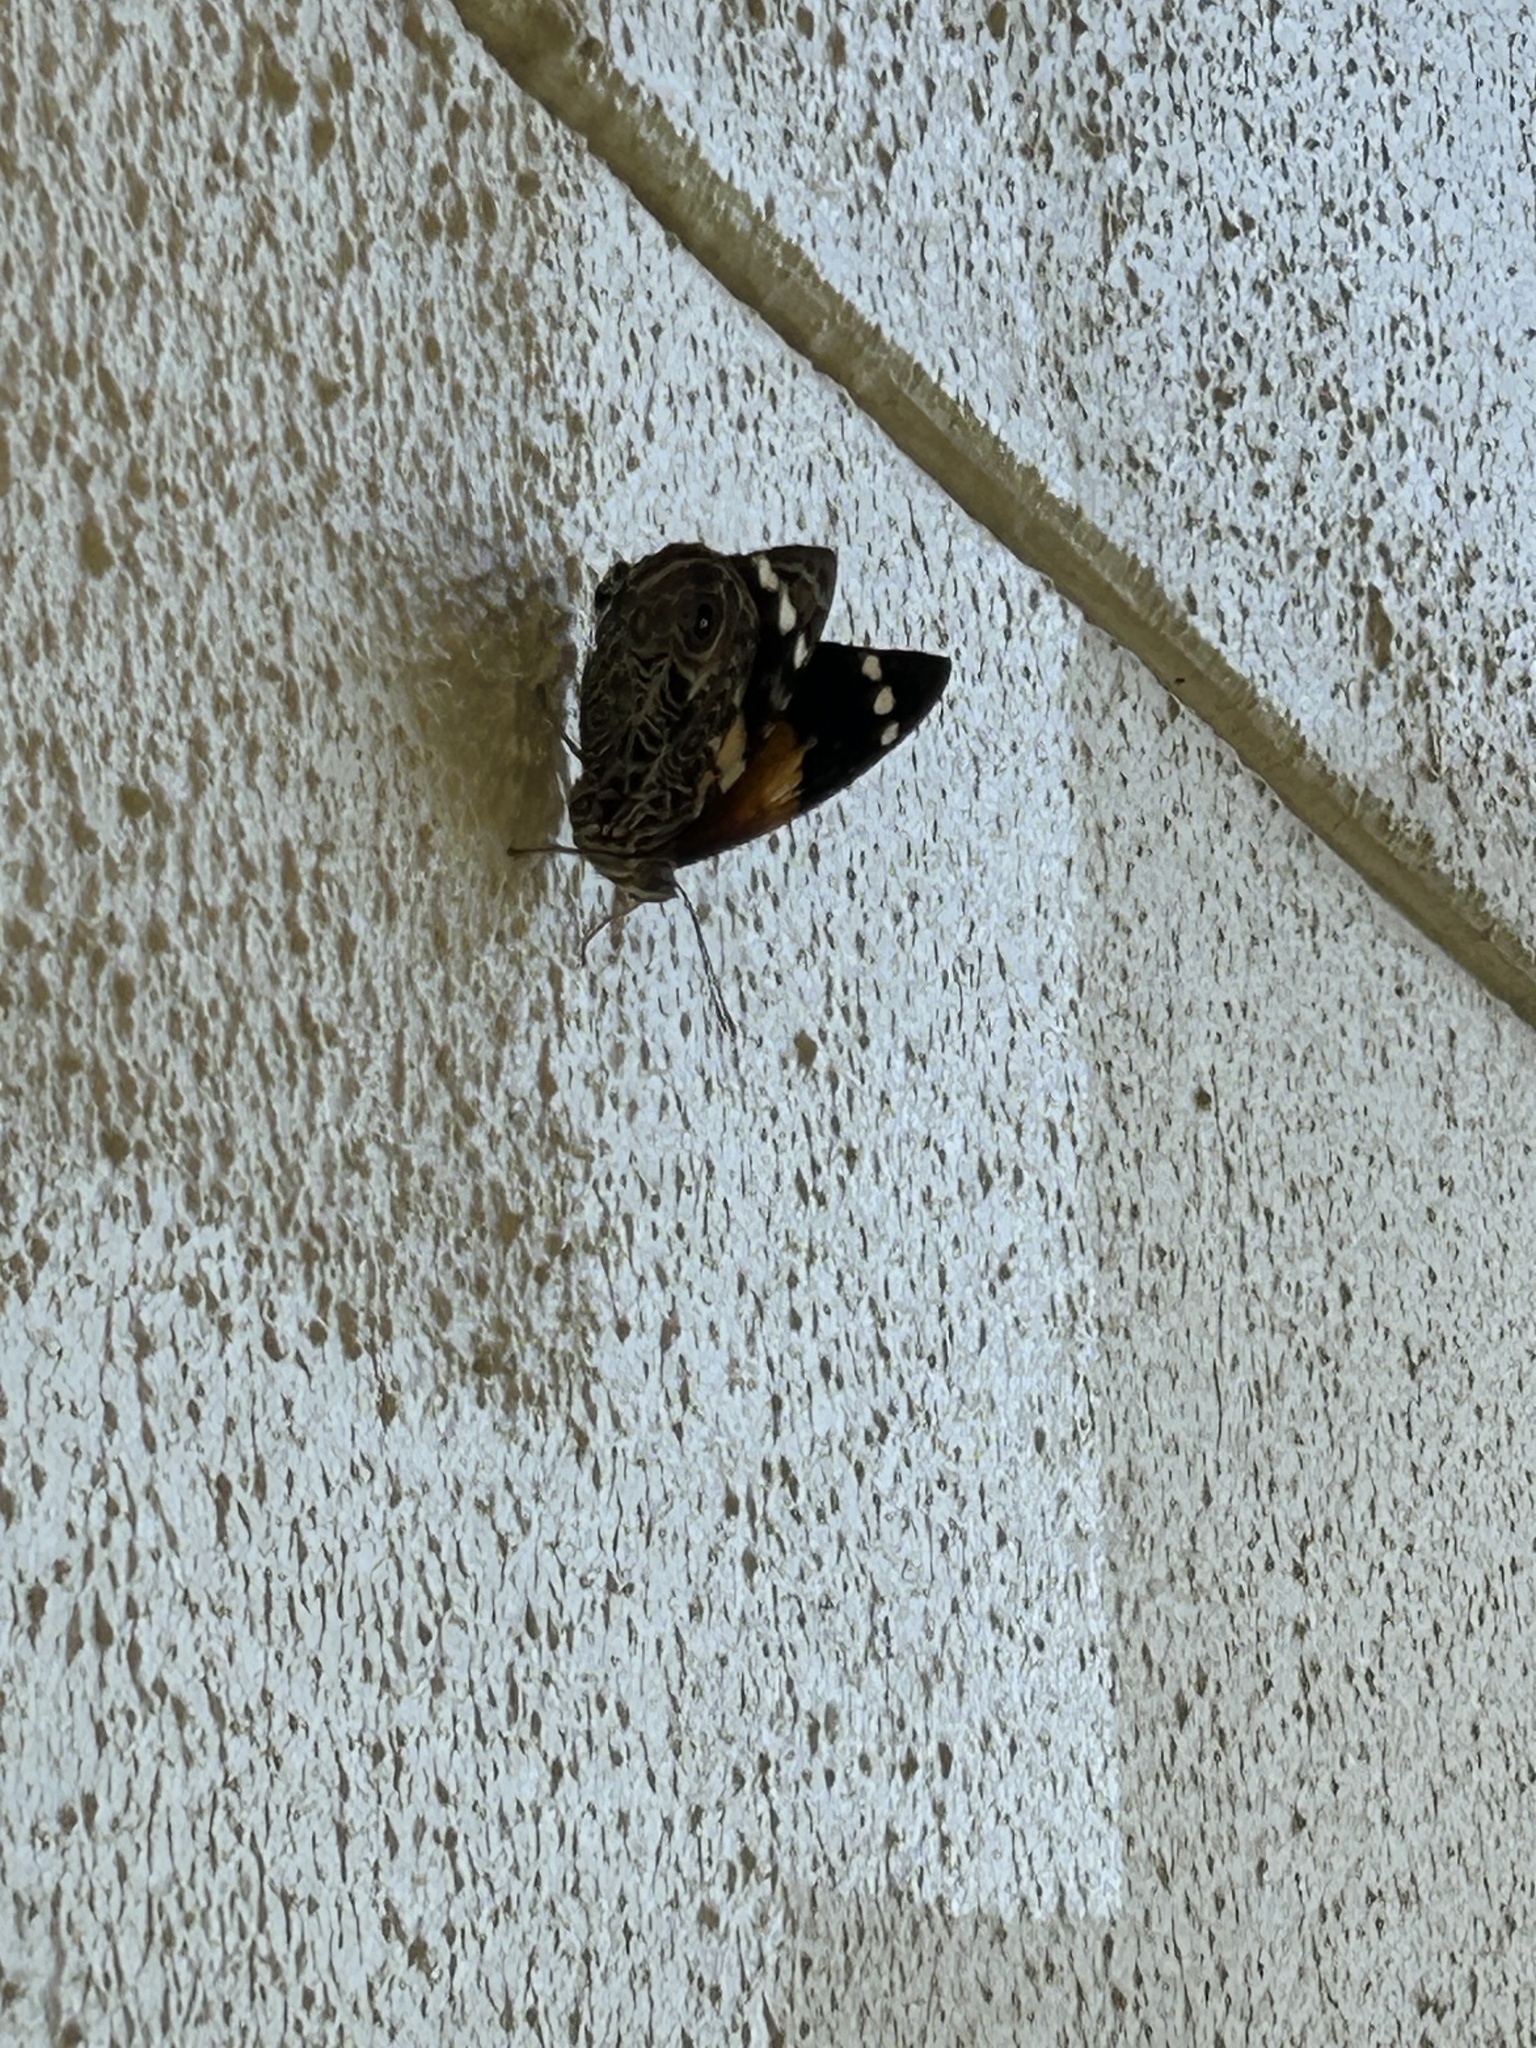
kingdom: Animalia
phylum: Arthropoda
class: Insecta
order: Lepidoptera
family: Nymphalidae
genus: Smyrna
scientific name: Smyrna blomfildia
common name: Blomfild's beauty
